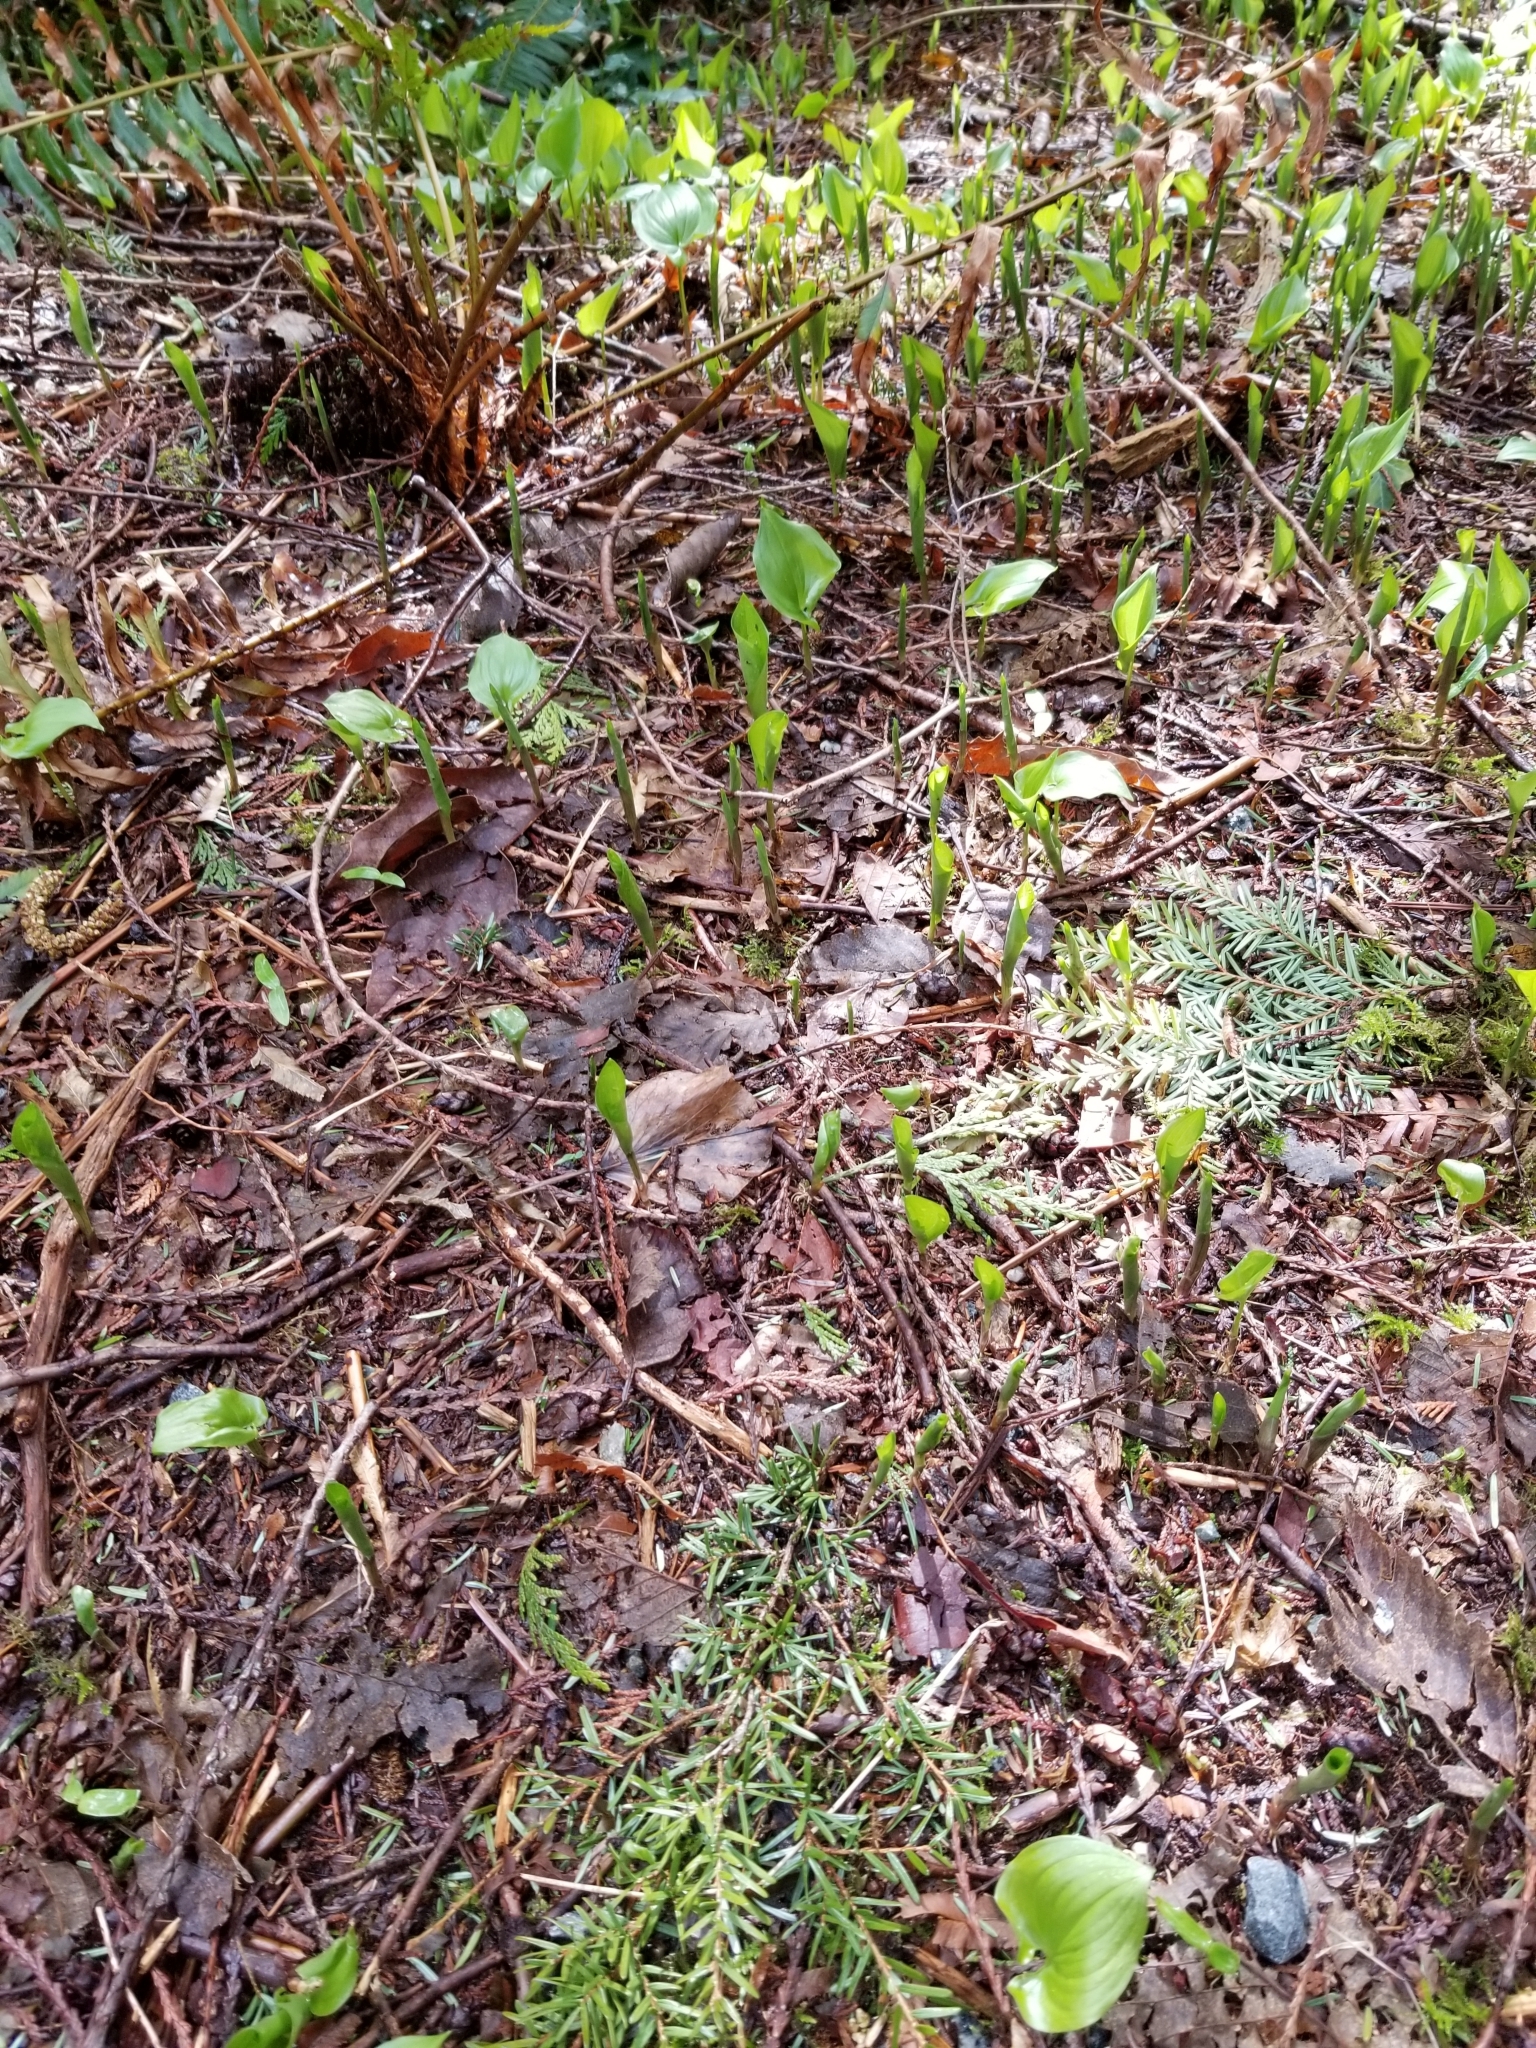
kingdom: Plantae
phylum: Tracheophyta
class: Liliopsida
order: Asparagales
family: Asparagaceae
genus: Maianthemum
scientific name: Maianthemum dilatatum
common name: False lily-of-the-valley
